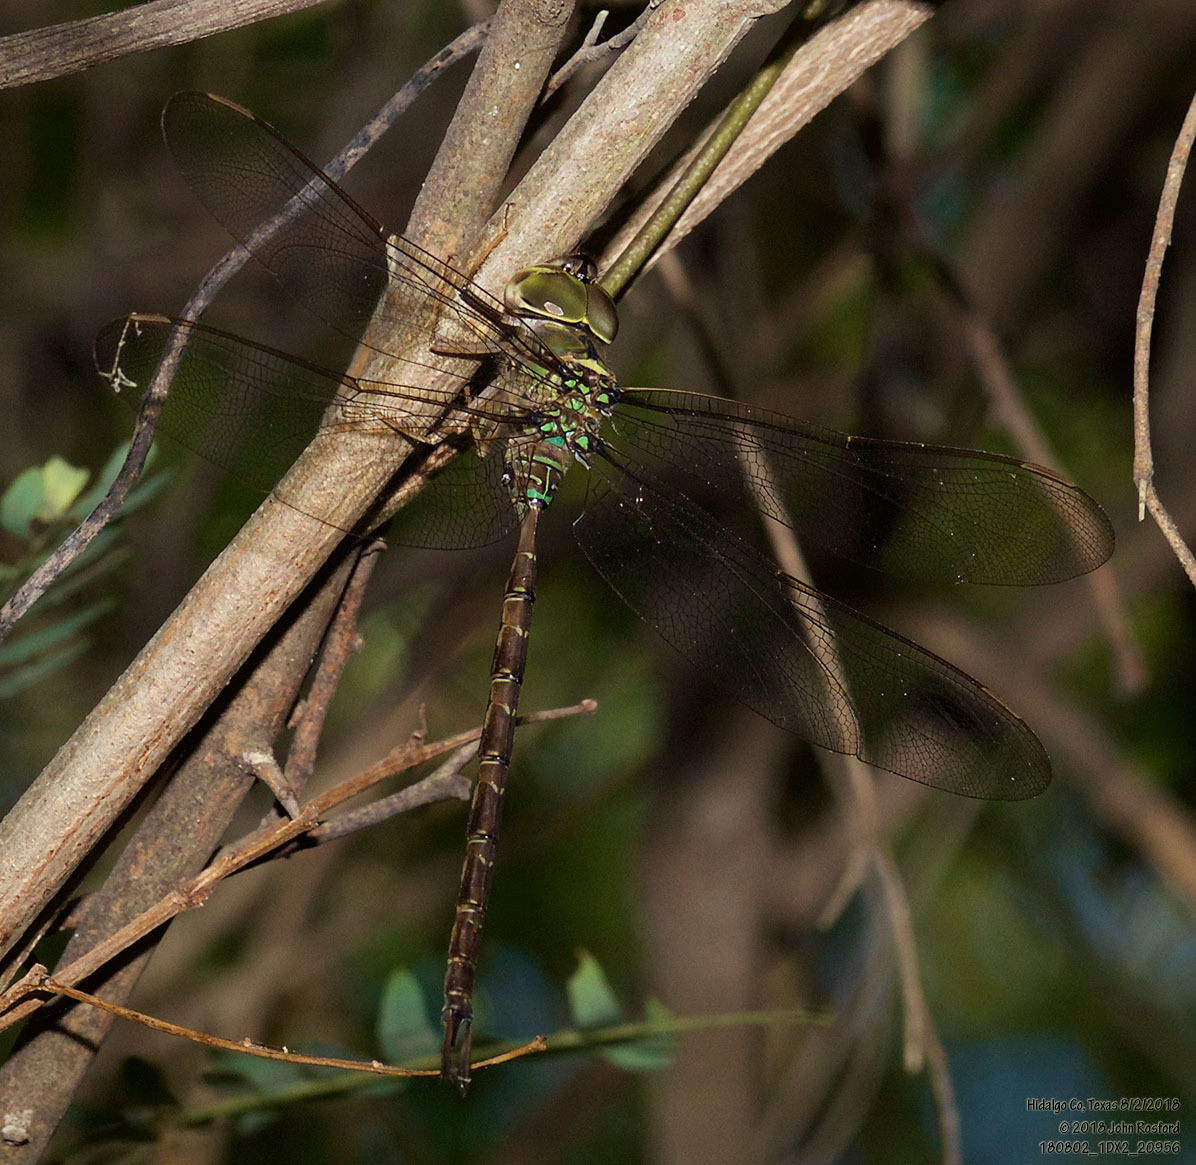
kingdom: Animalia
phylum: Arthropoda
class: Insecta
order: Odonata
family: Aeshnidae
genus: Gynacantha
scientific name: Gynacantha mexicana
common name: Bar-sided darner
